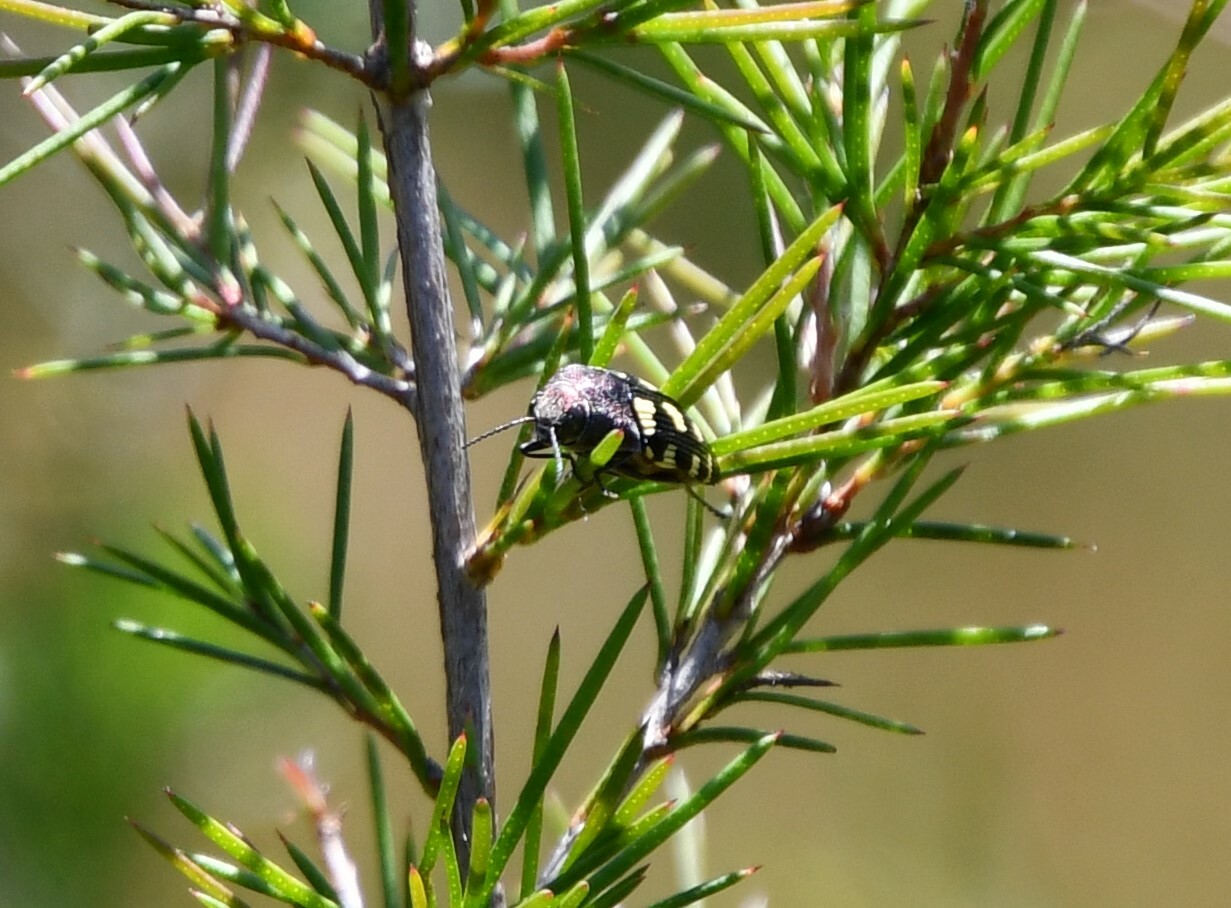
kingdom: Animalia
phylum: Arthropoda
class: Insecta
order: Coleoptera
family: Buprestidae
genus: Astraeus
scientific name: Astraeus crassus
